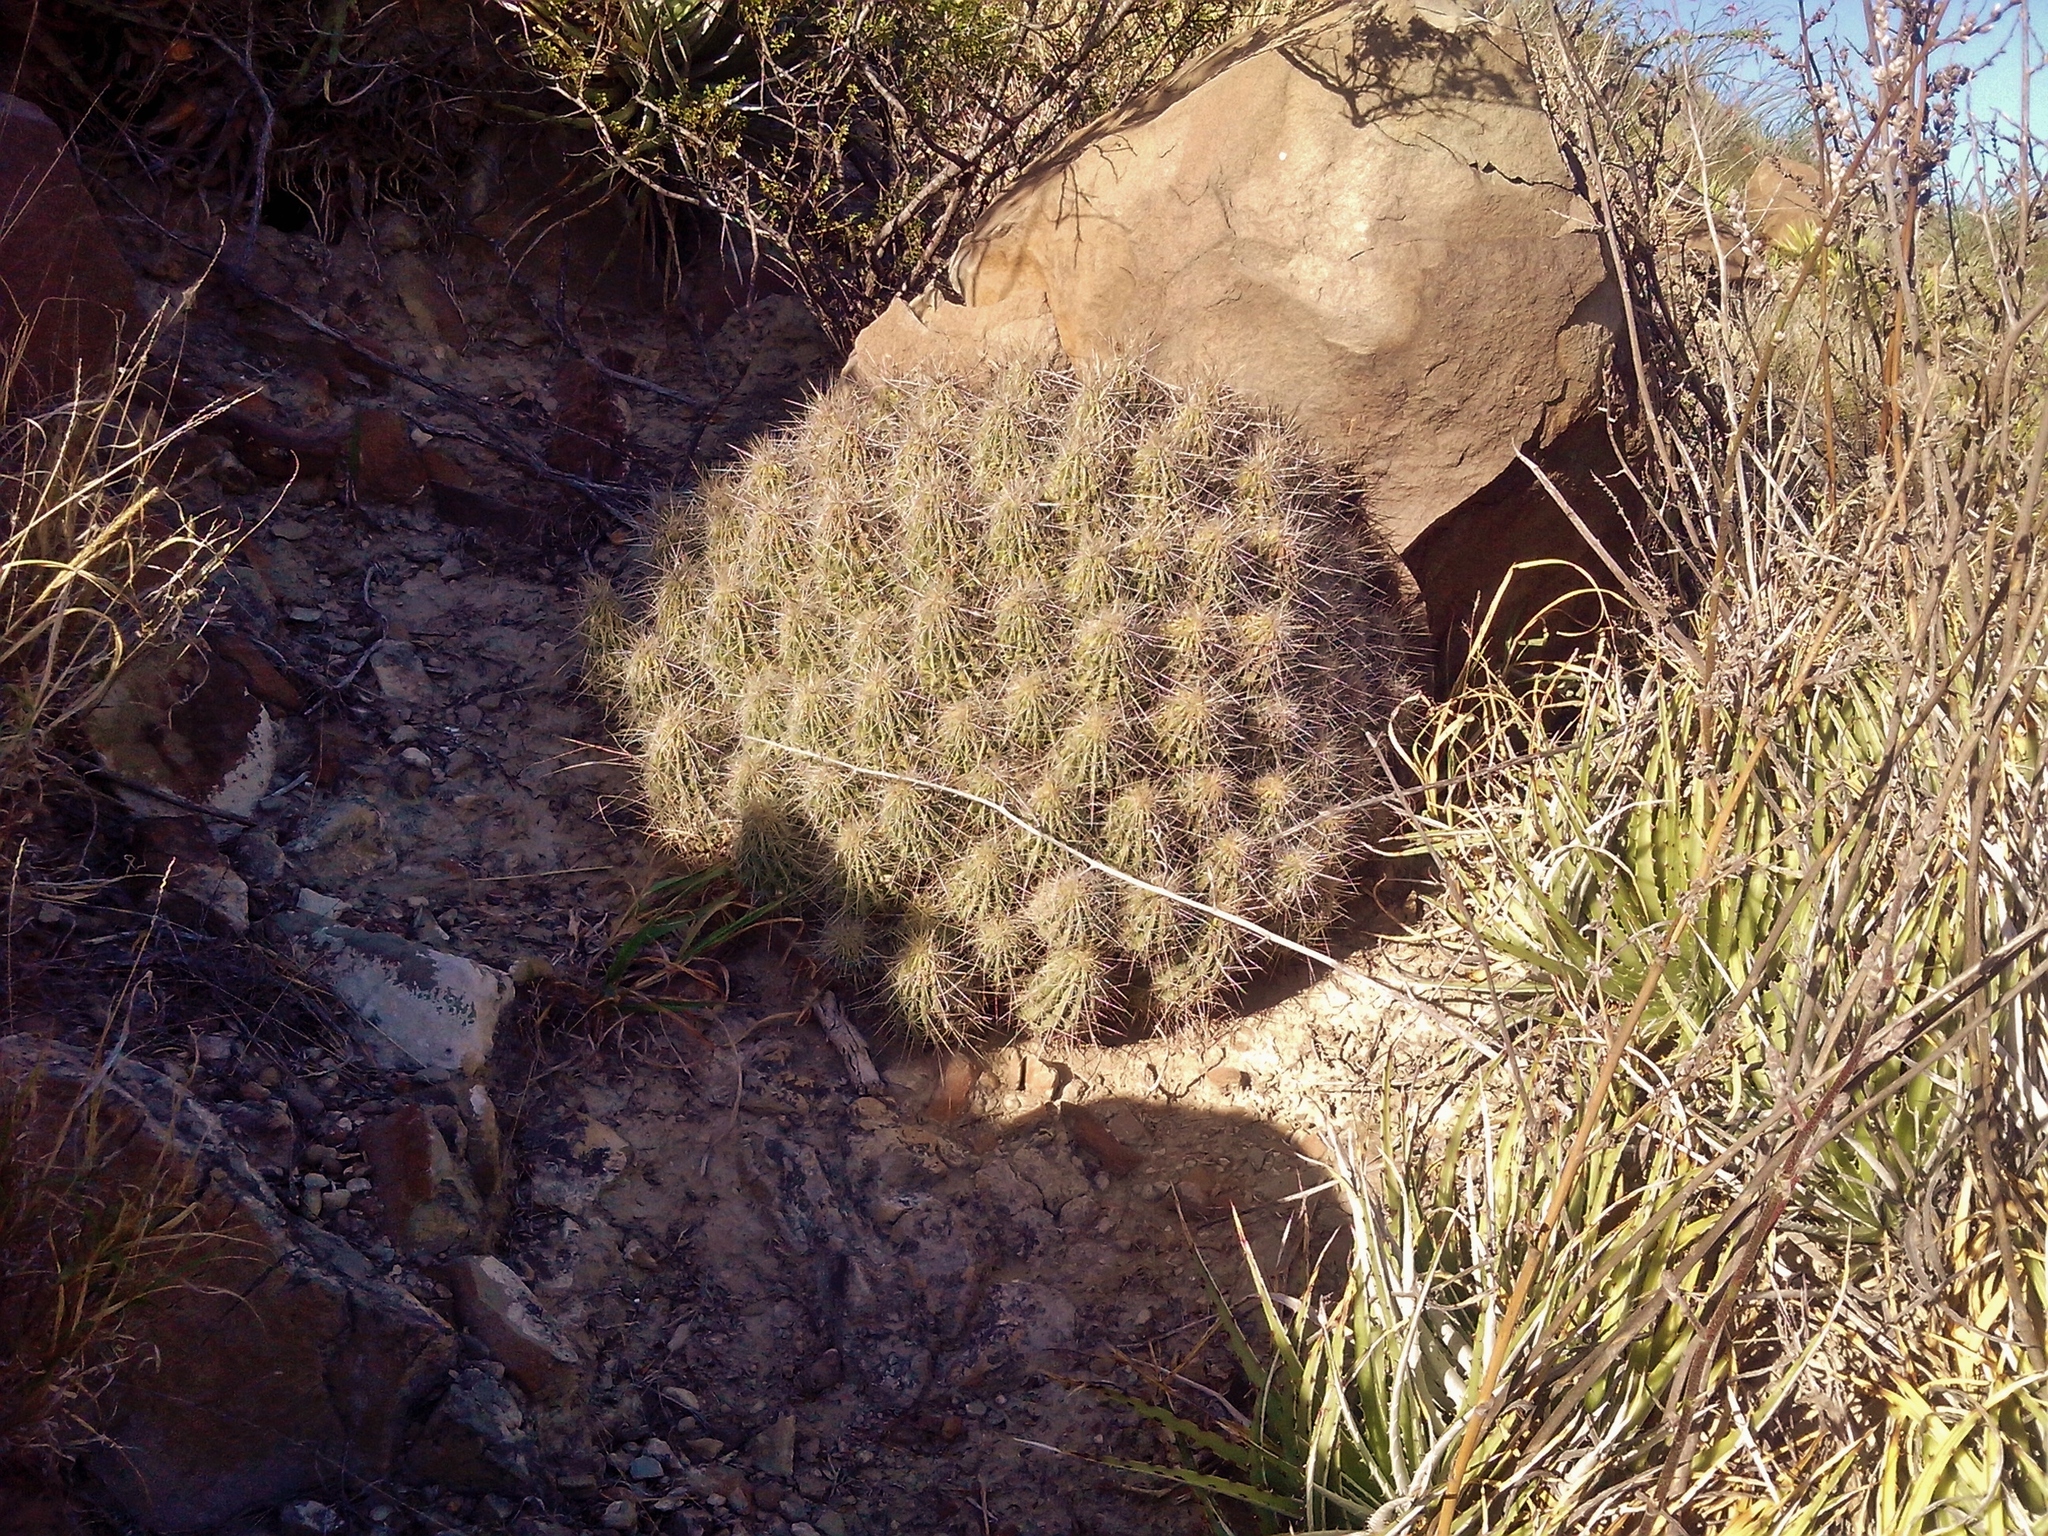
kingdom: Plantae
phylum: Tracheophyta
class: Magnoliopsida
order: Caryophyllales
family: Cactaceae
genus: Echinocereus
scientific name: Echinocereus stramineus
